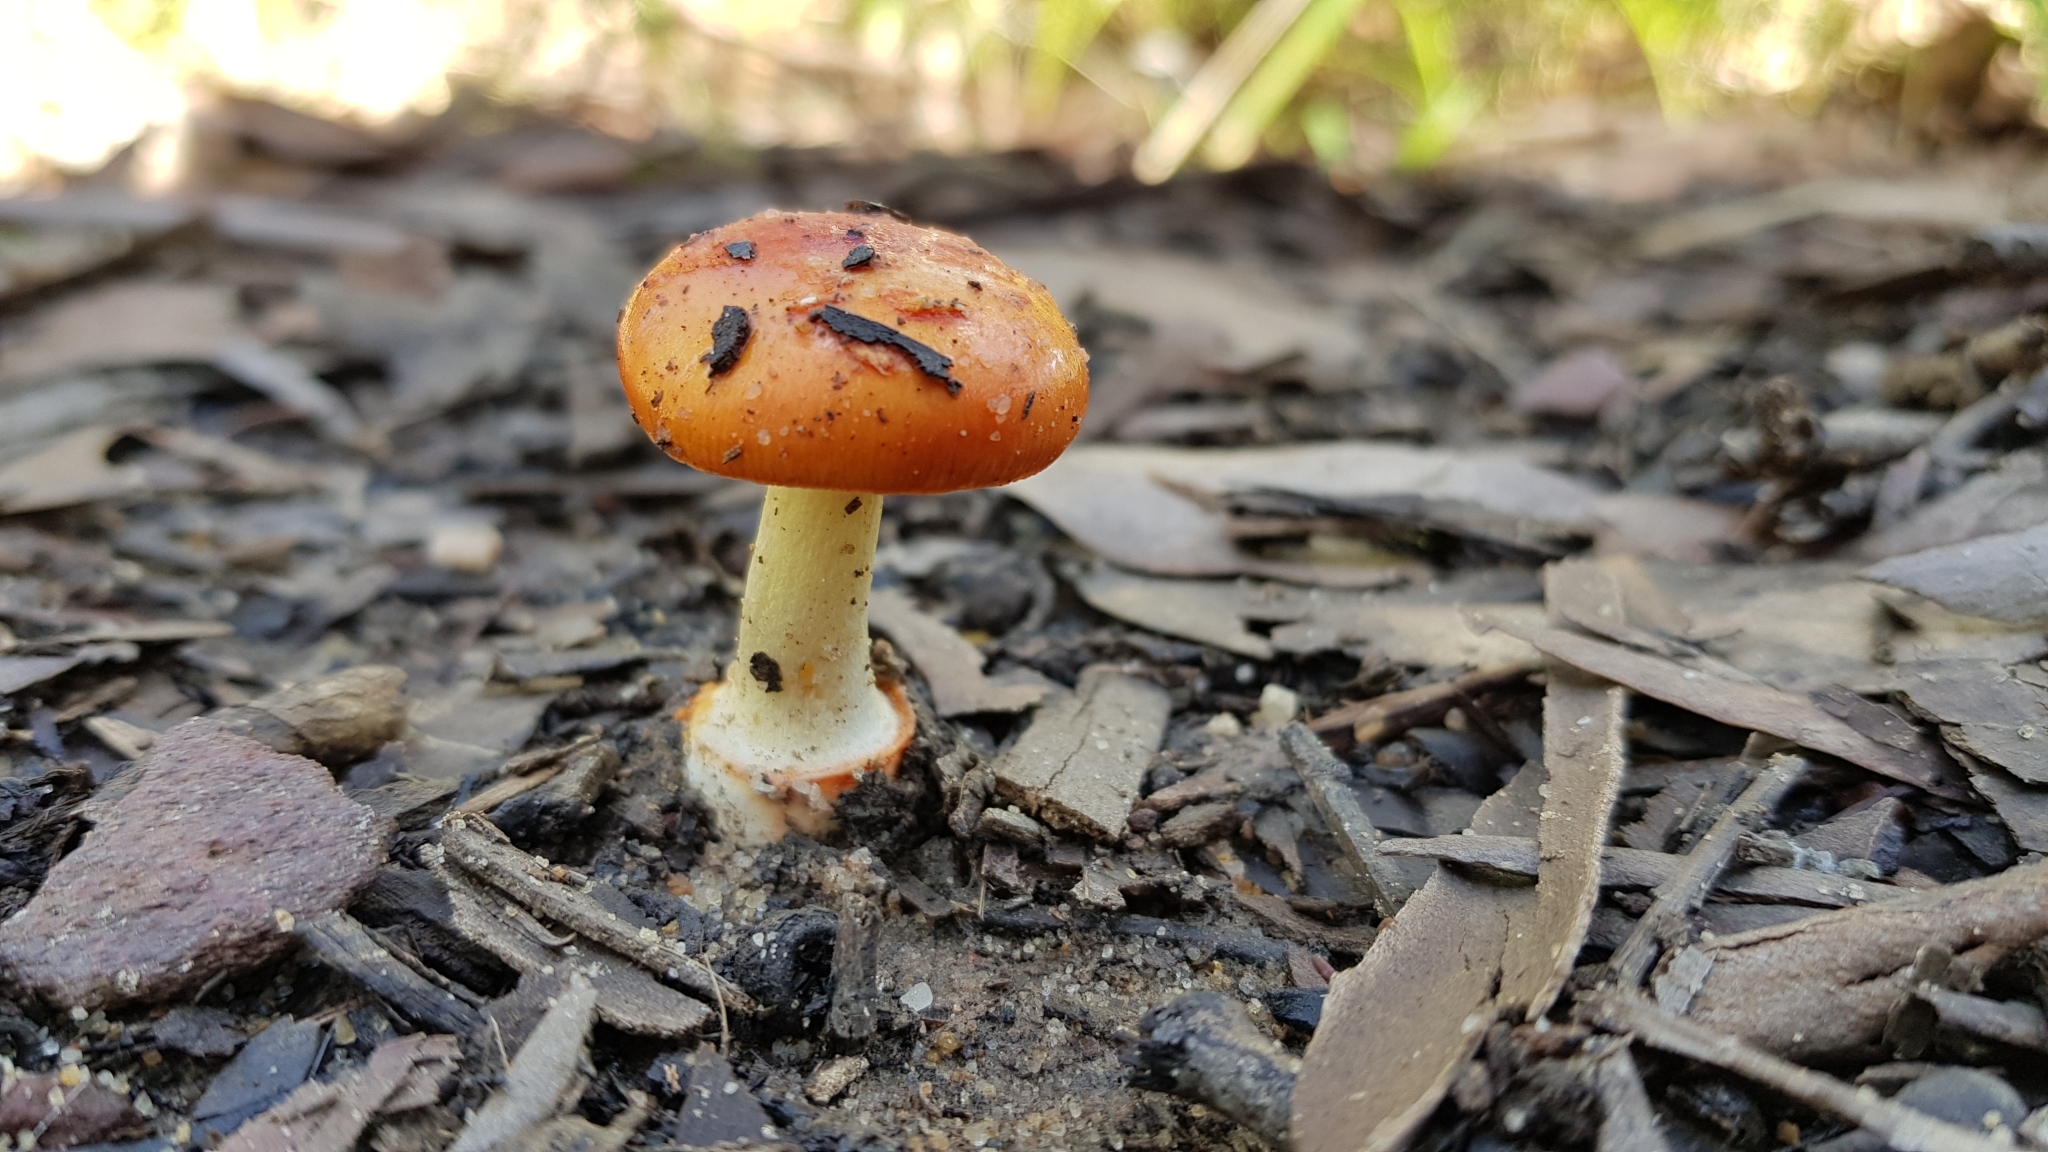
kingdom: Fungi
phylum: Basidiomycota
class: Agaricomycetes
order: Agaricales
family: Amanitaceae
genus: Amanita
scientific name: Amanita xanthocephala
